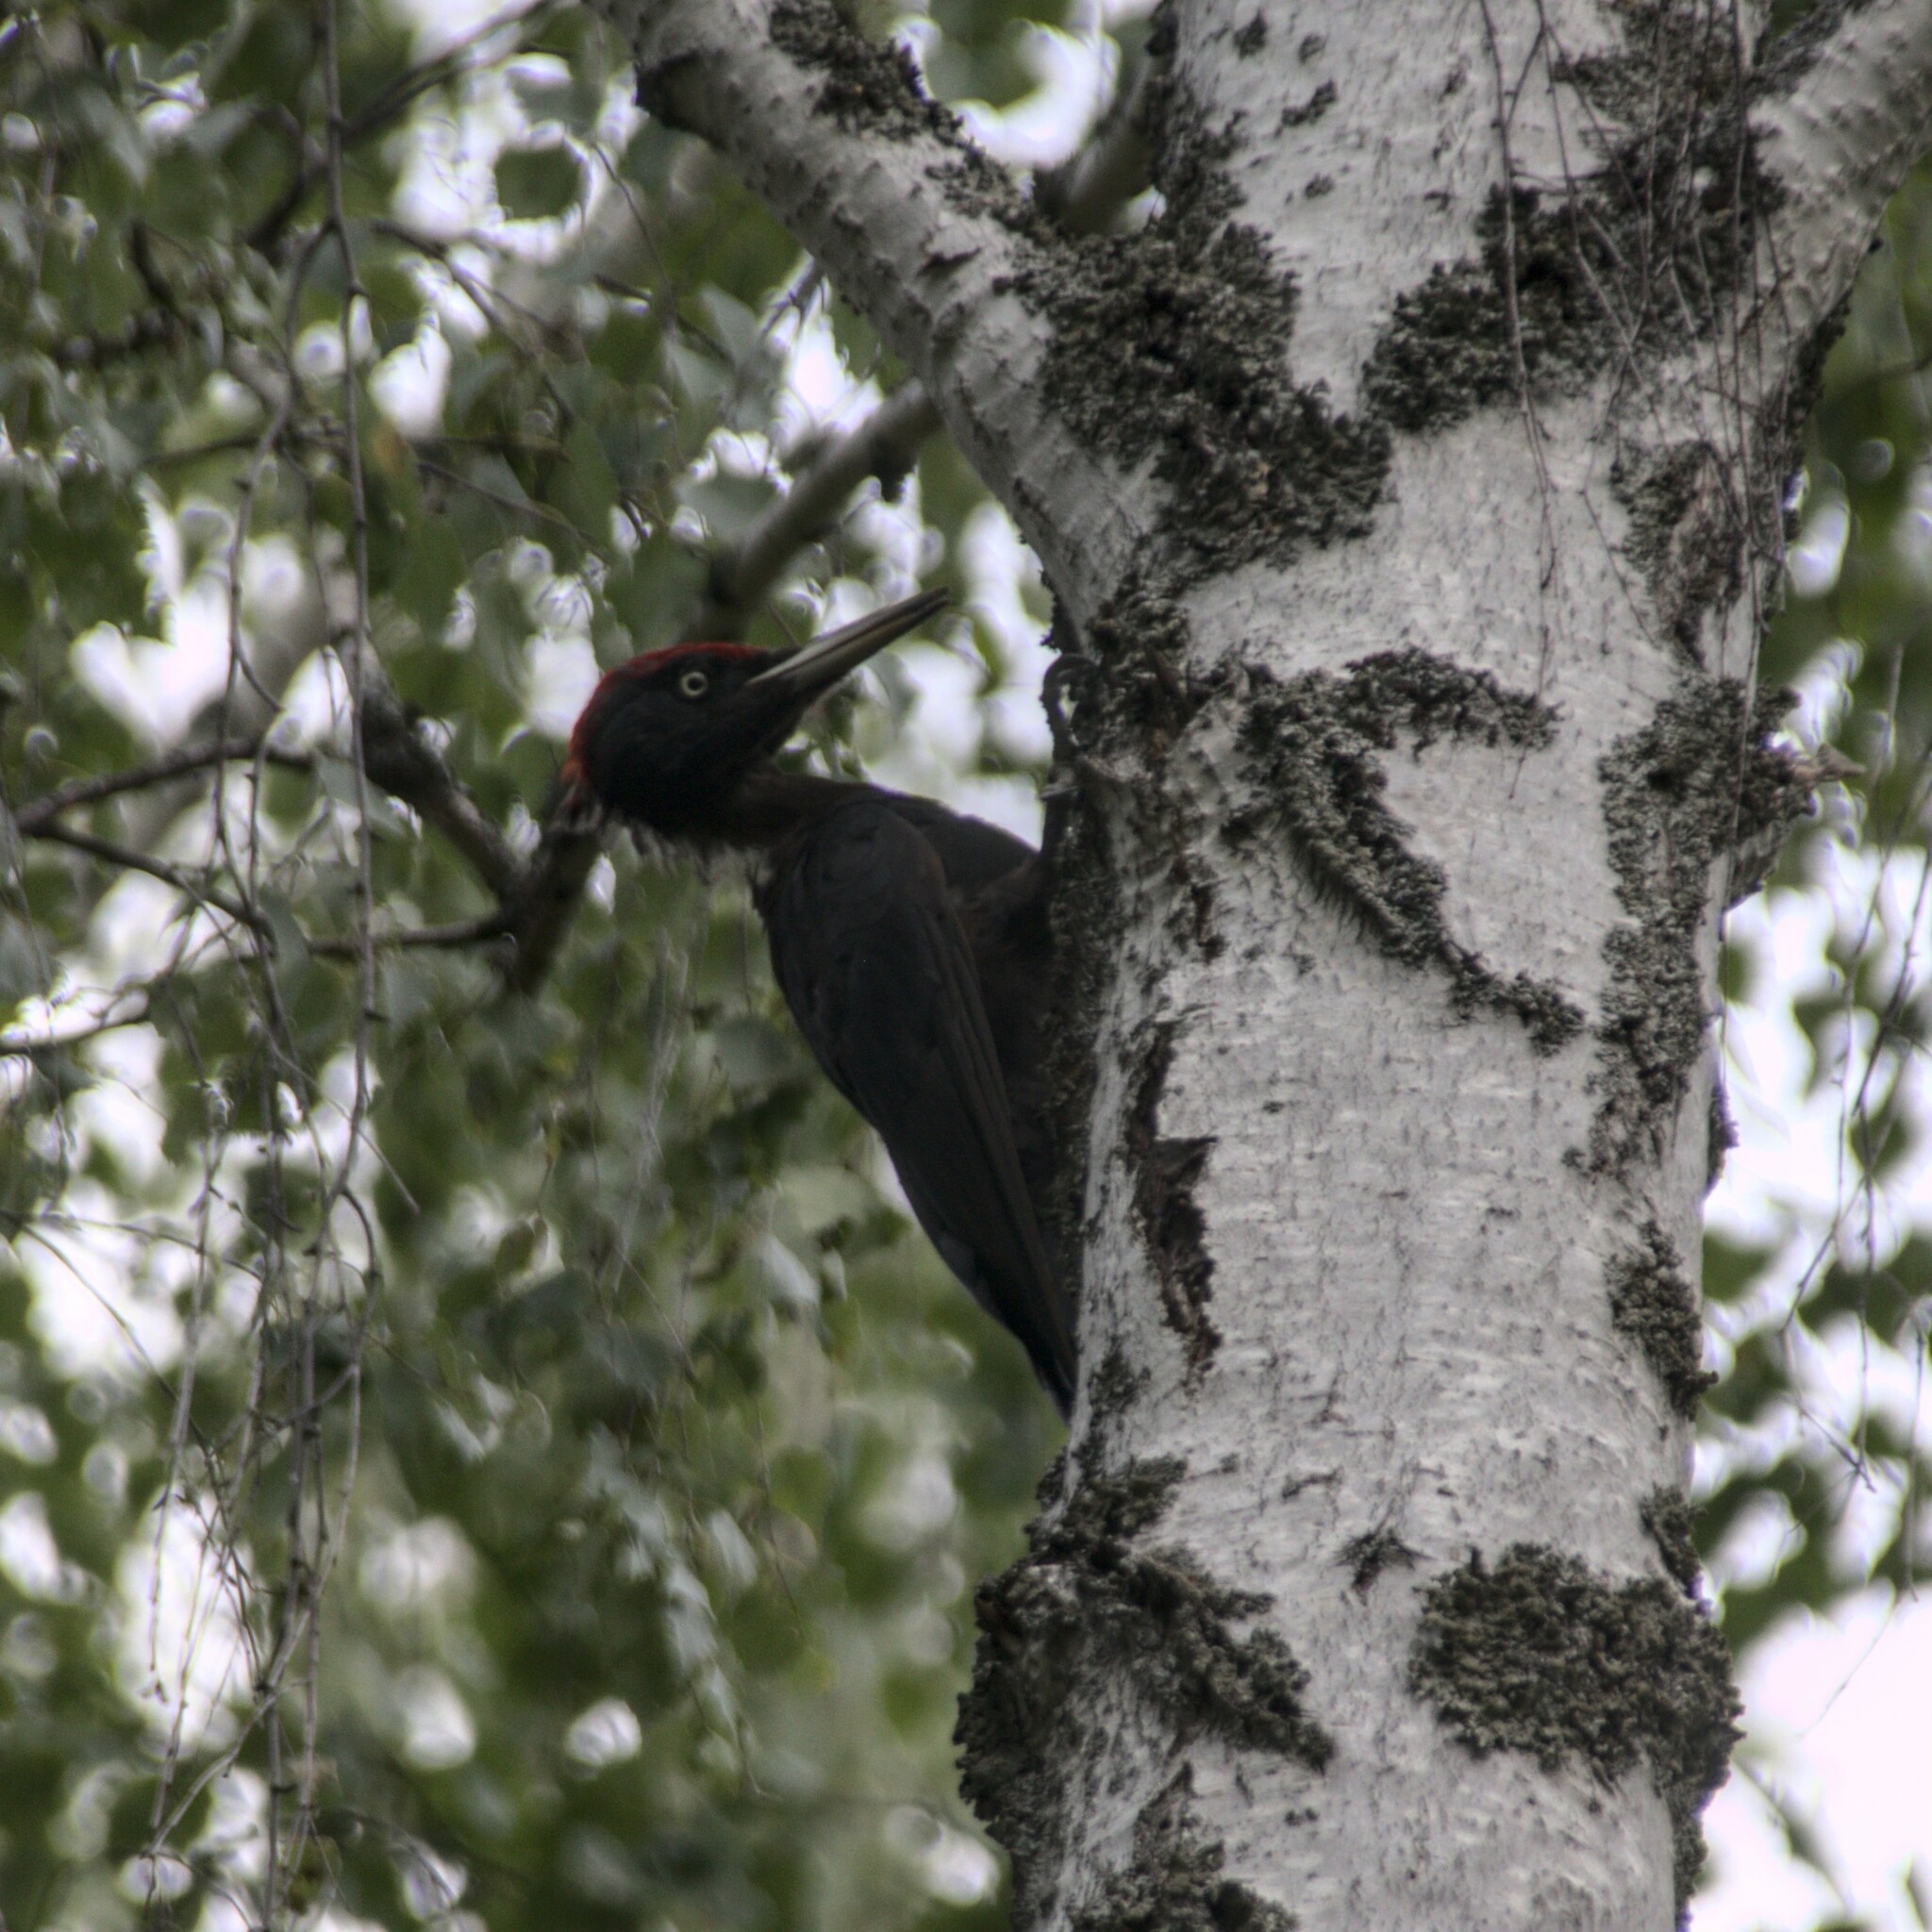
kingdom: Animalia
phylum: Chordata
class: Aves
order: Piciformes
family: Picidae
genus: Dryocopus
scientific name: Dryocopus martius
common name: Black woodpecker
